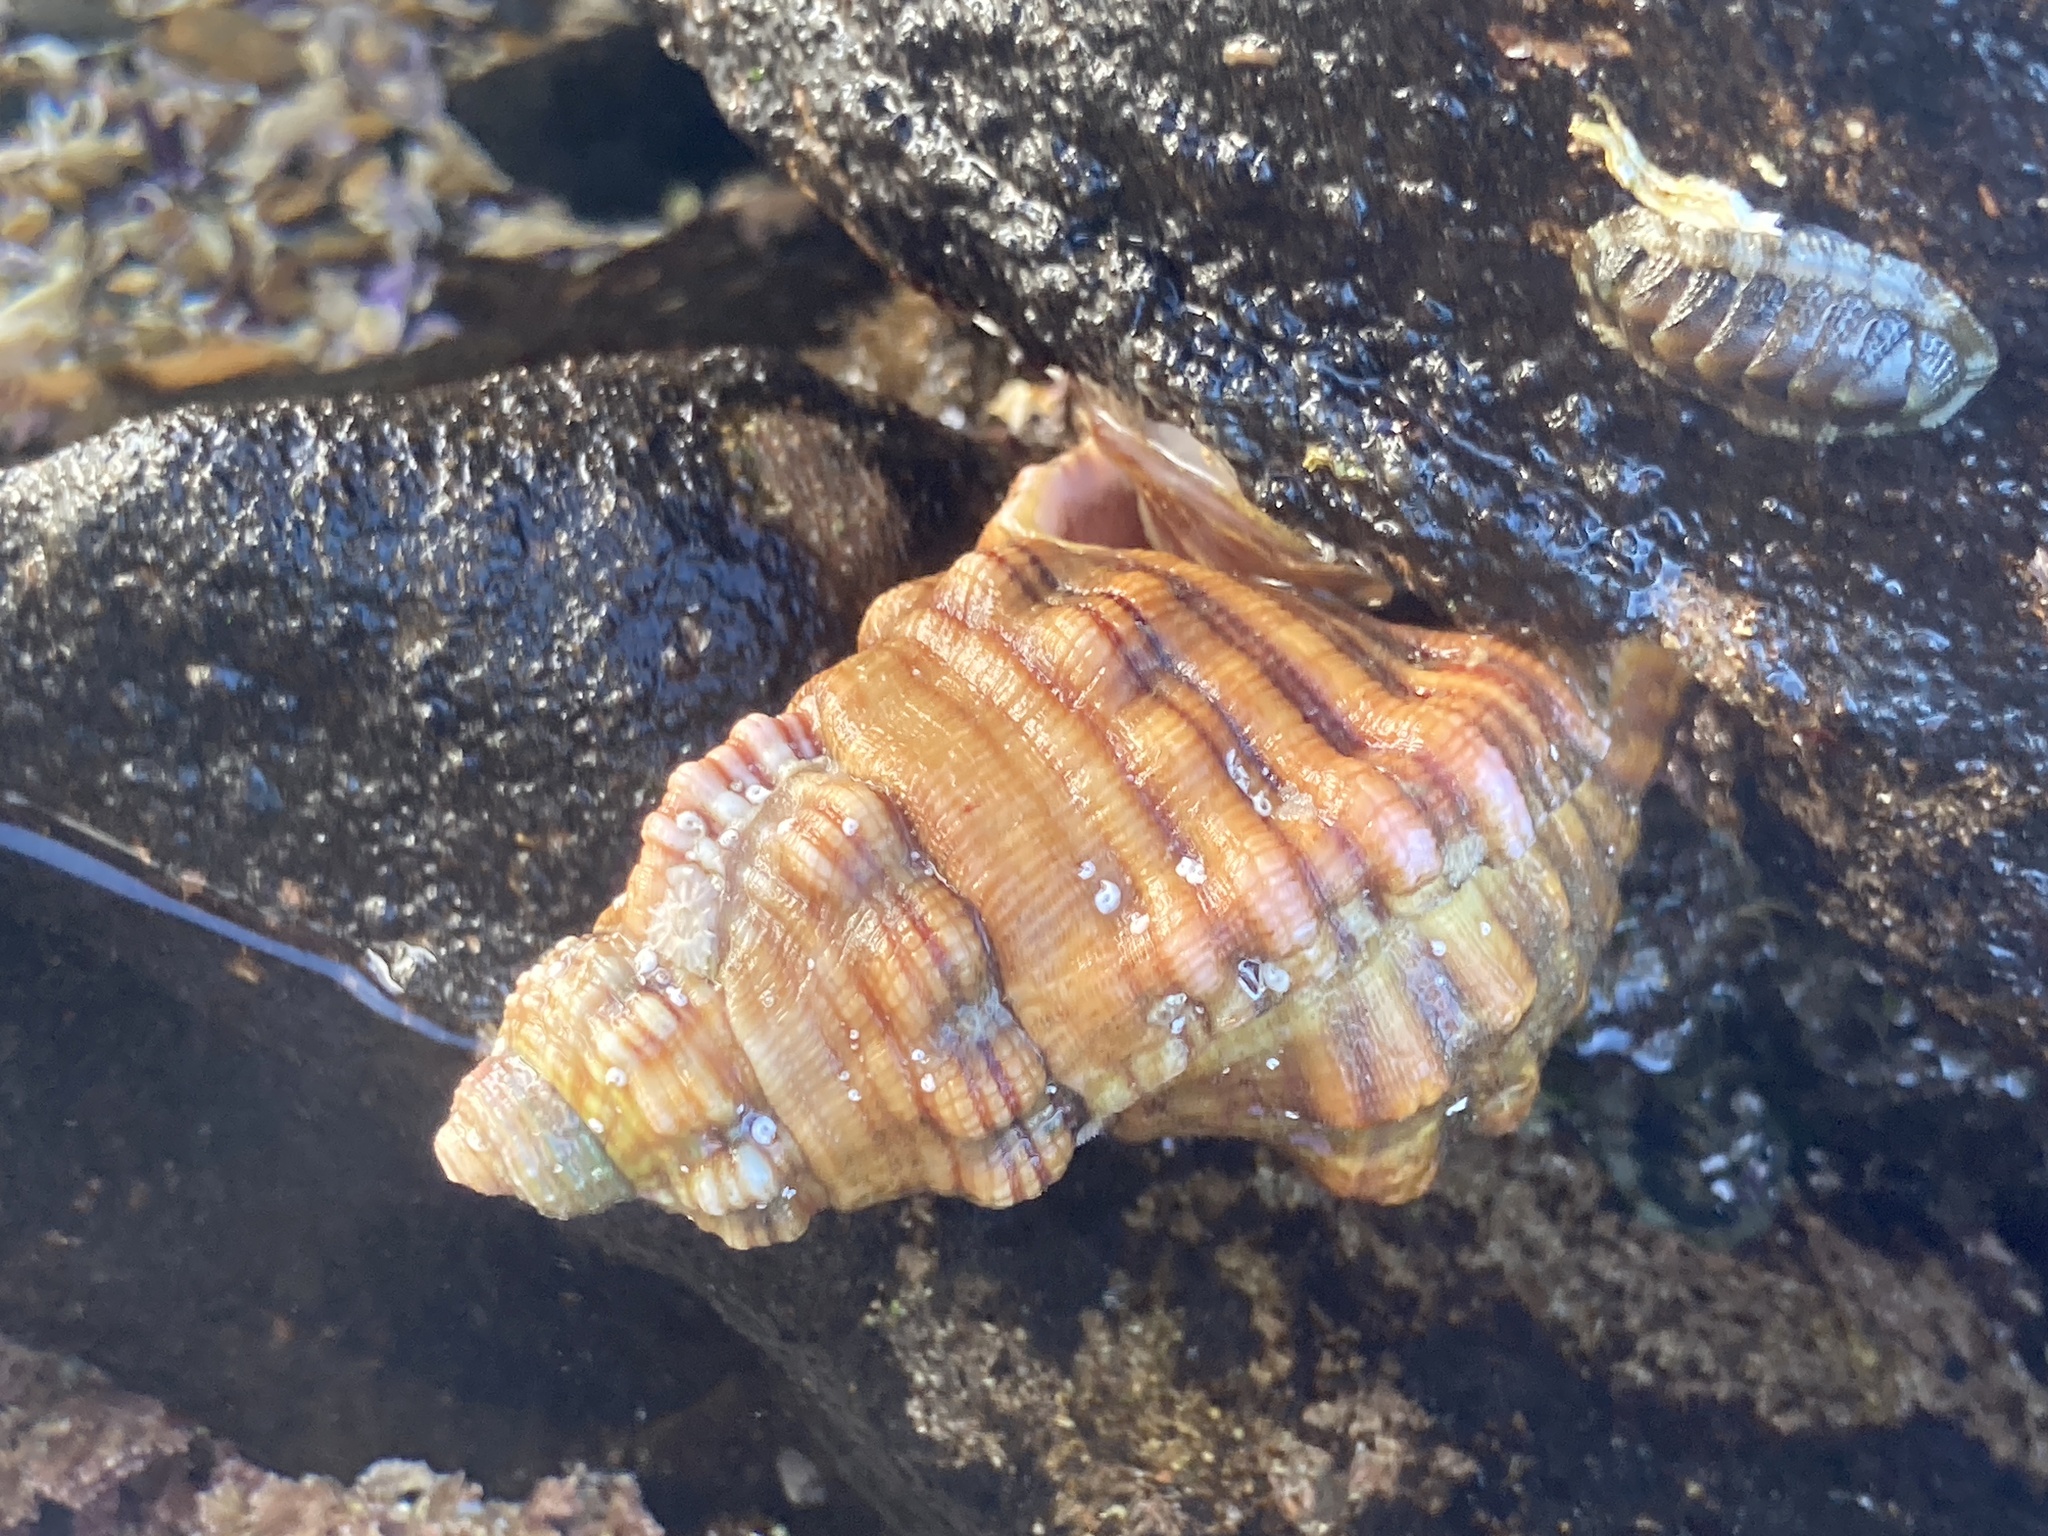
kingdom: Animalia
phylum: Mollusca
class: Gastropoda
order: Littorinimorpha
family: Cymatiidae
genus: Cabestana
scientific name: Cabestana spengleri
